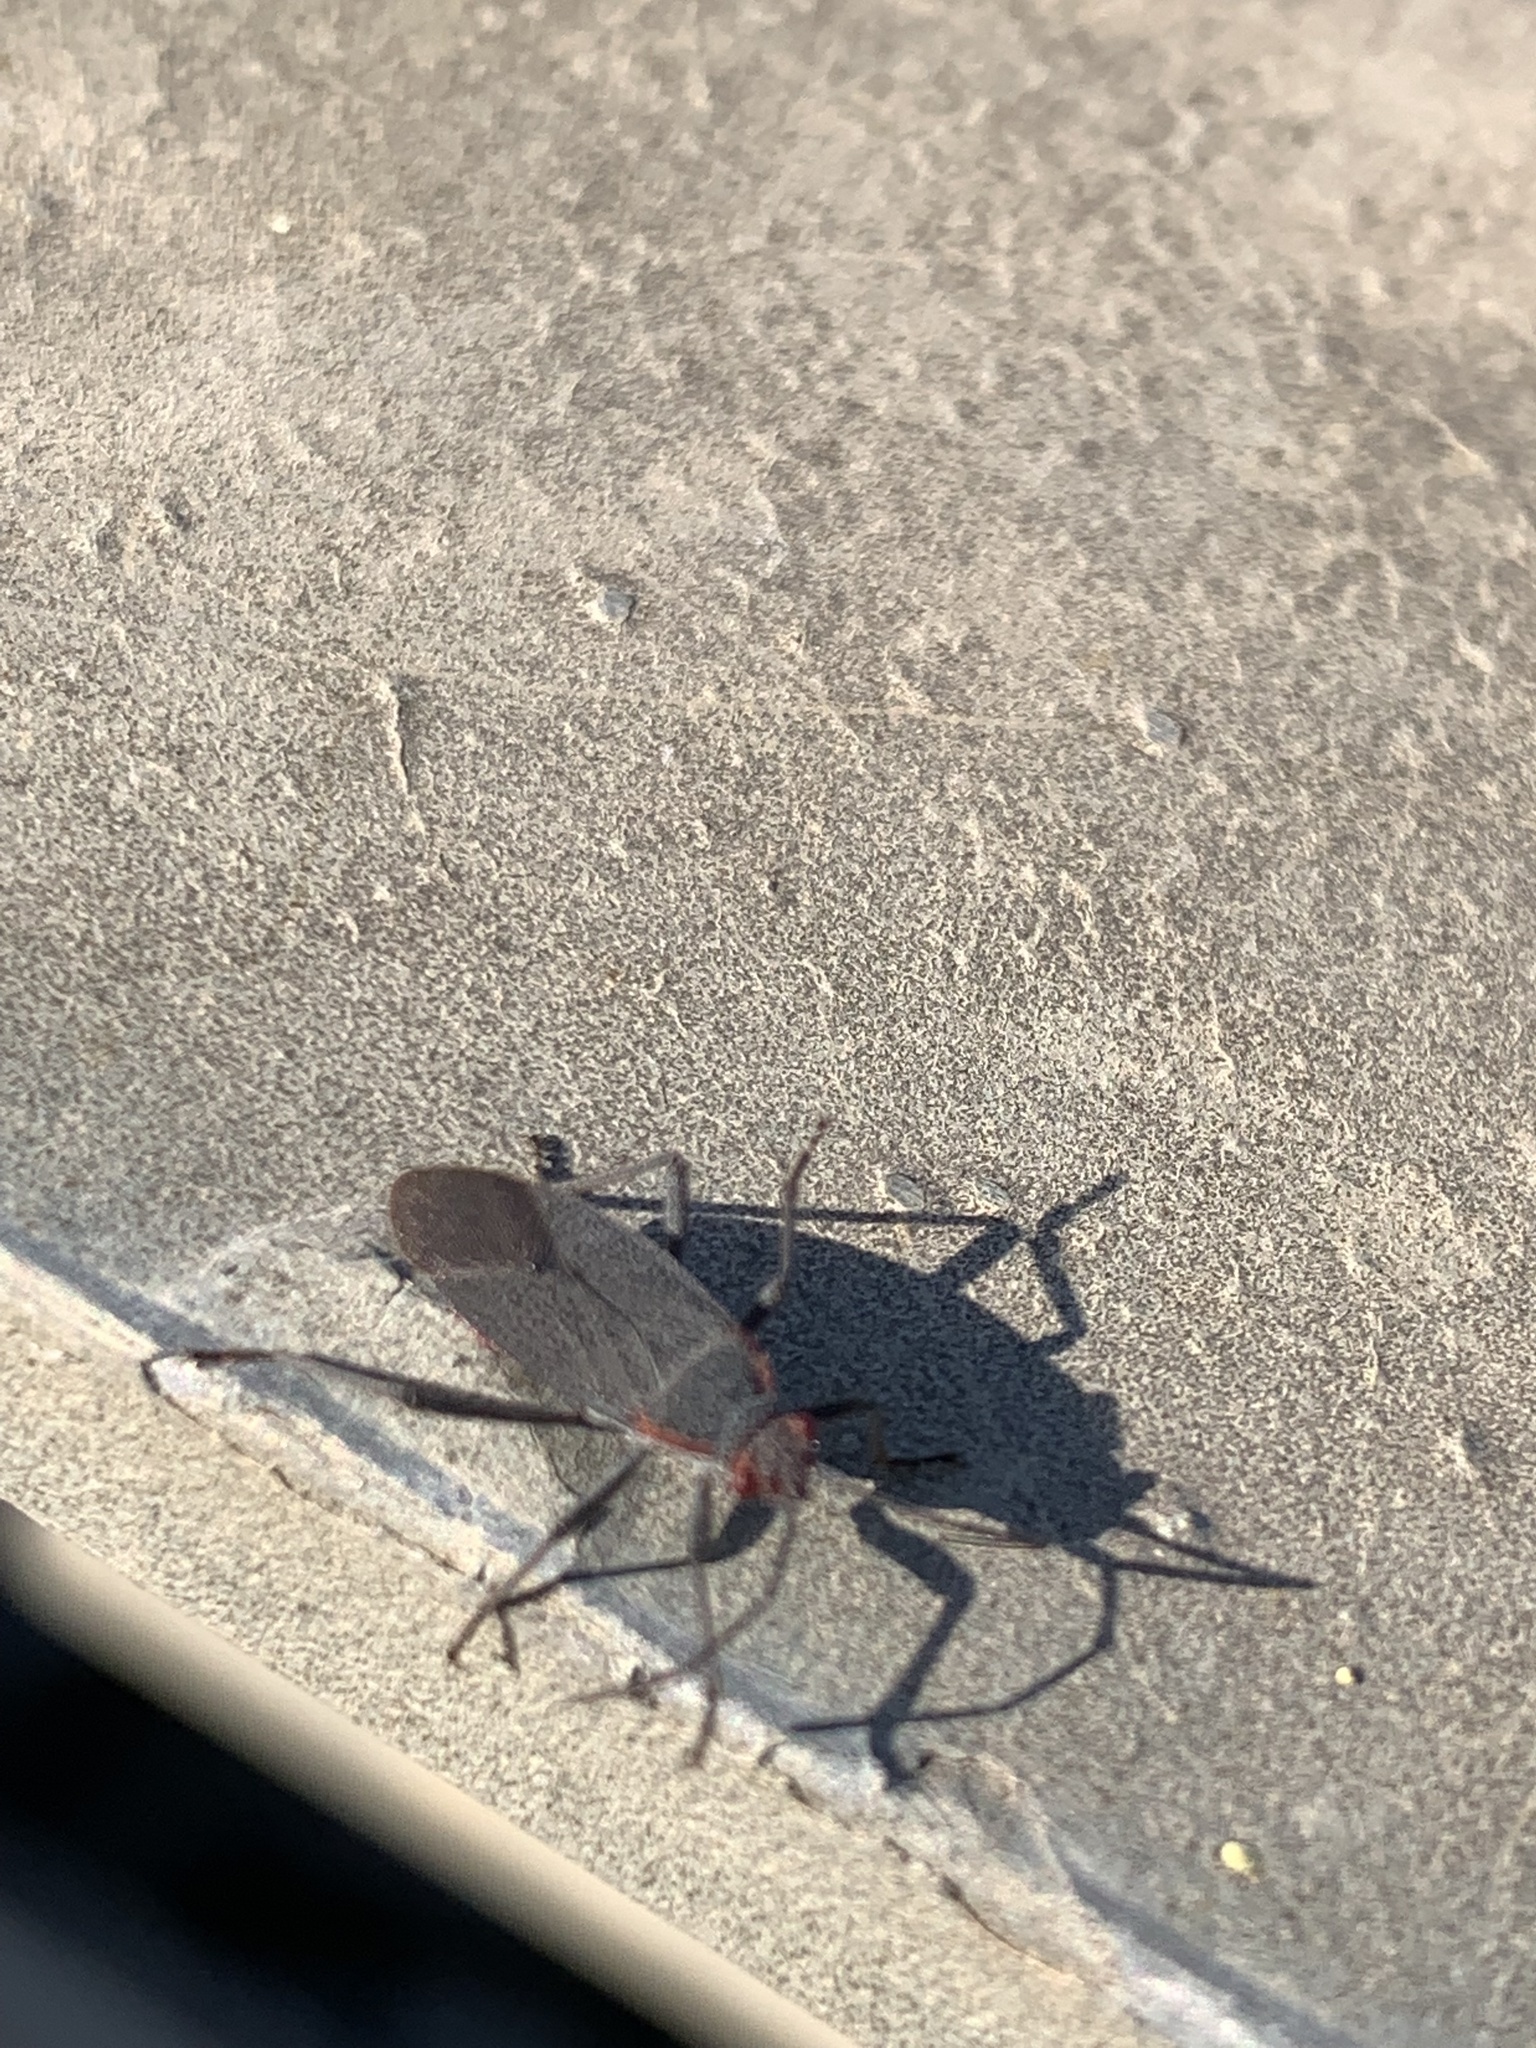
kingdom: Animalia
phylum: Arthropoda
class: Insecta
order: Hemiptera
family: Rhopalidae
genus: Jadera
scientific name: Jadera parapectoralis
